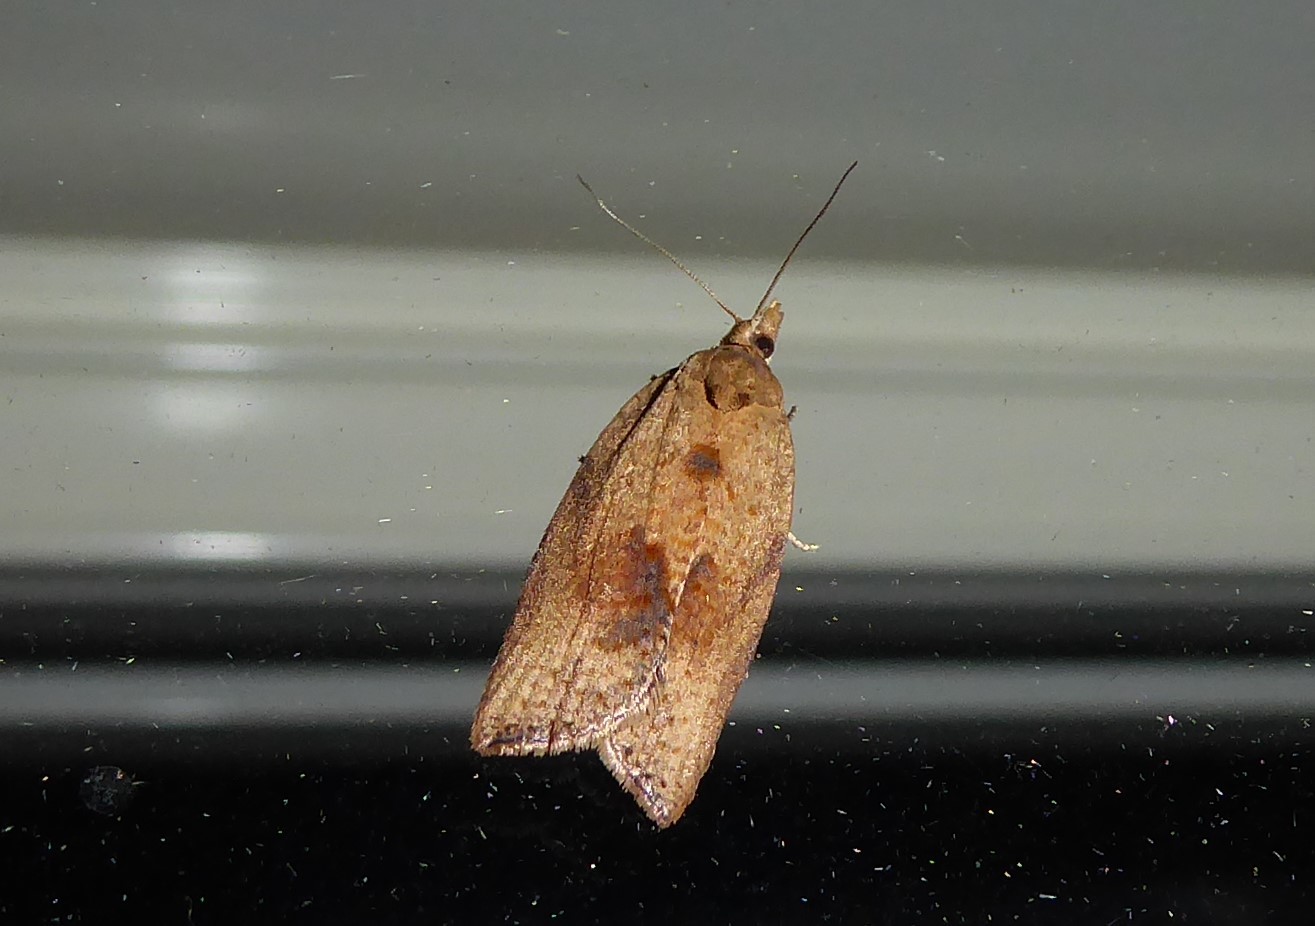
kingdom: Animalia
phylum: Arthropoda
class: Insecta
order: Lepidoptera
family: Tortricidae
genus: Epiphyas
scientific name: Epiphyas postvittana
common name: Light brown apple moth
